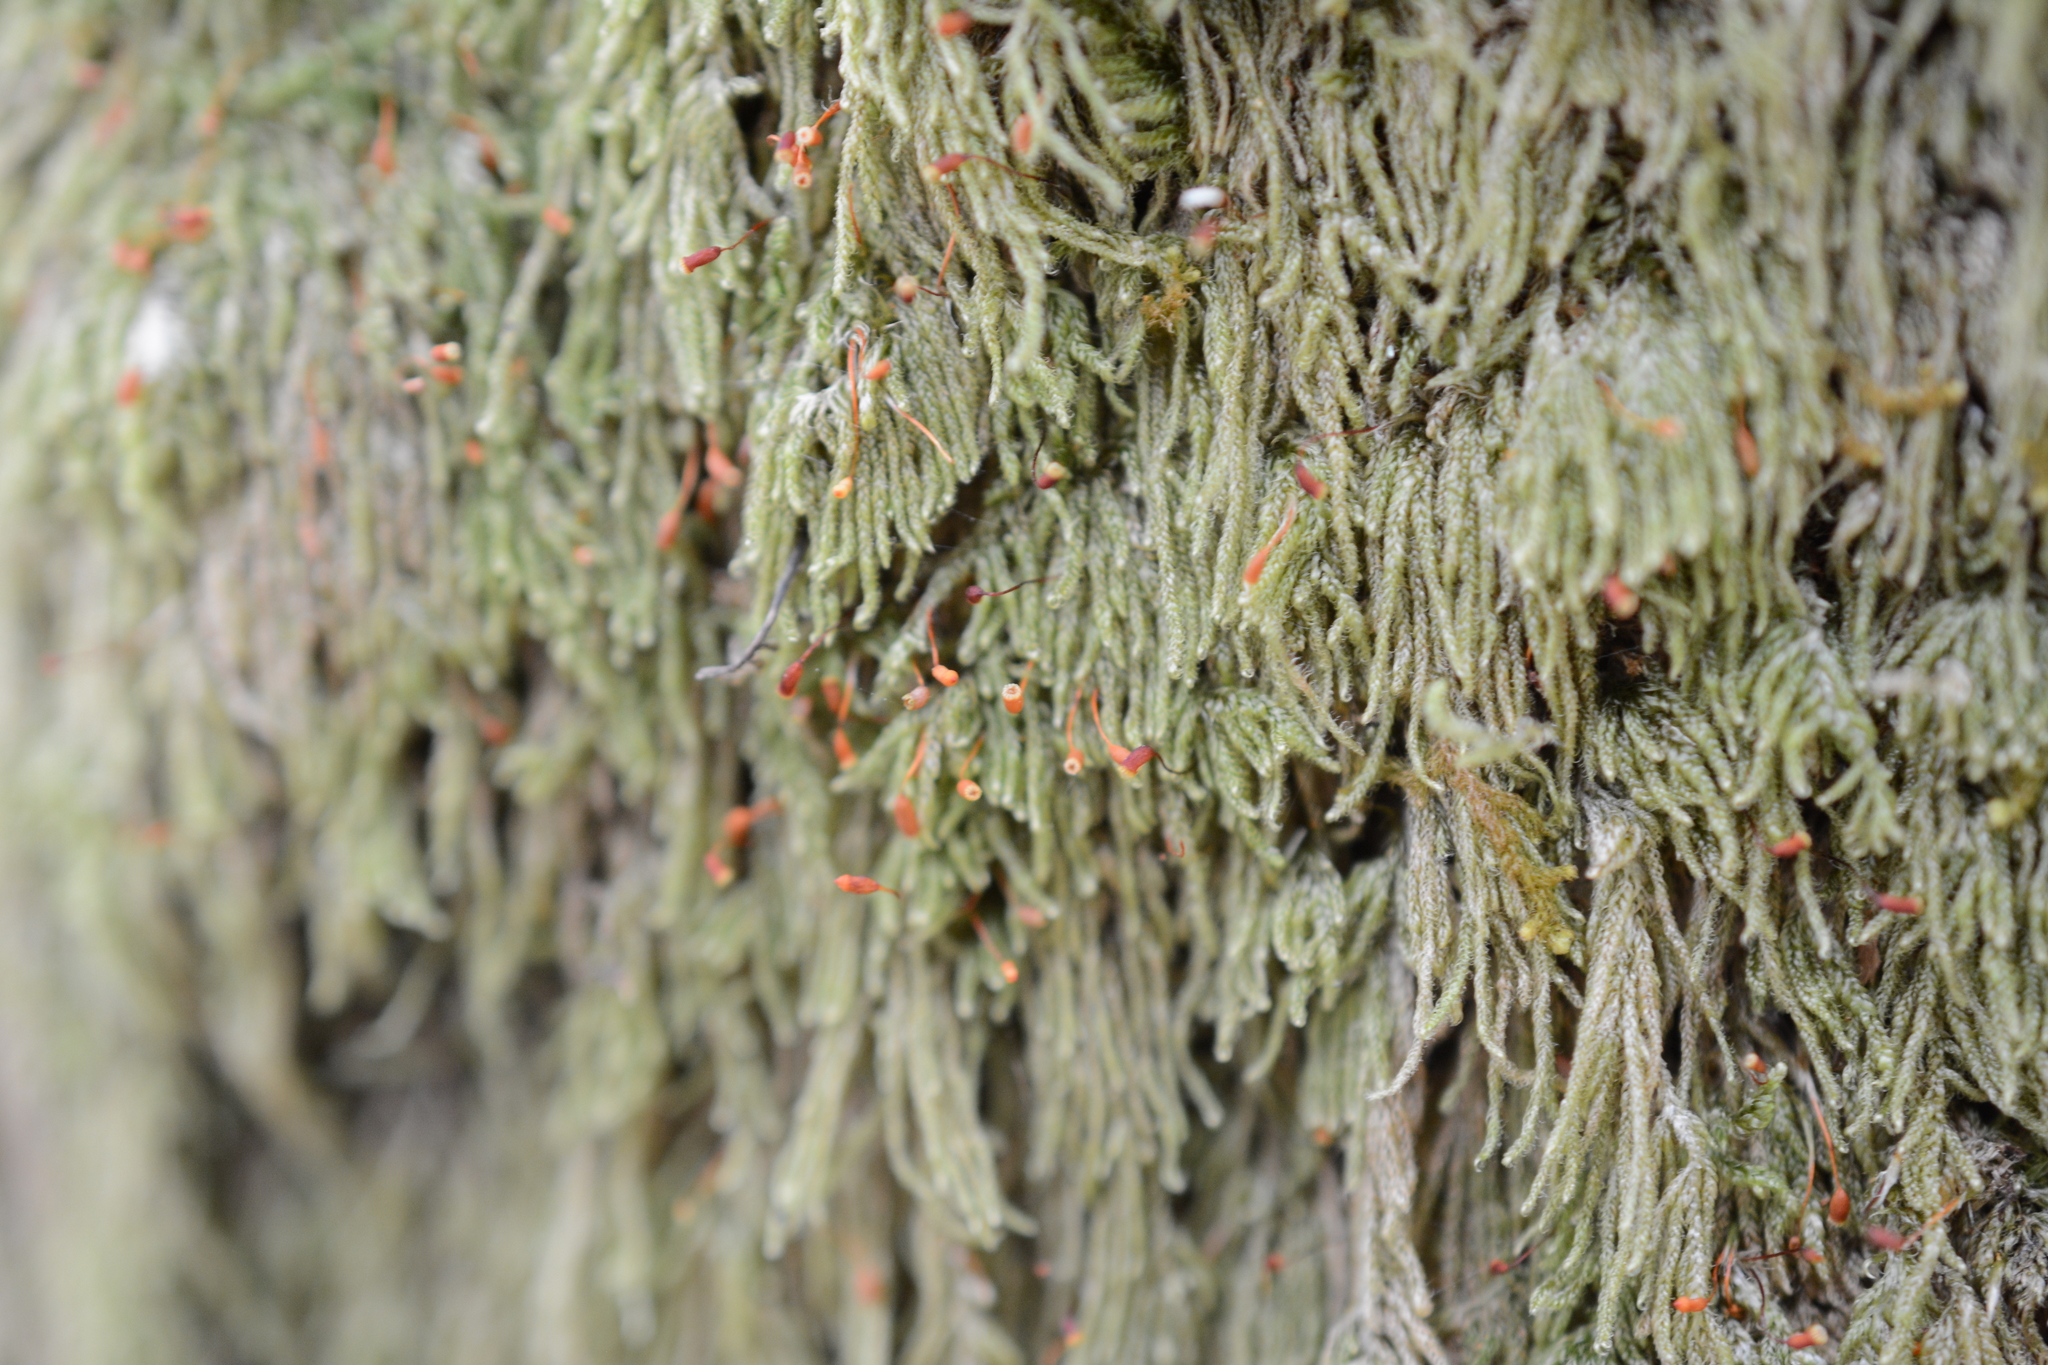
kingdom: Plantae
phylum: Bryophyta
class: Bryopsida
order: Hypnales
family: Pylaisiadelphaceae
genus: Trochophyllohypnum
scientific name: Trochophyllohypnum circinale
